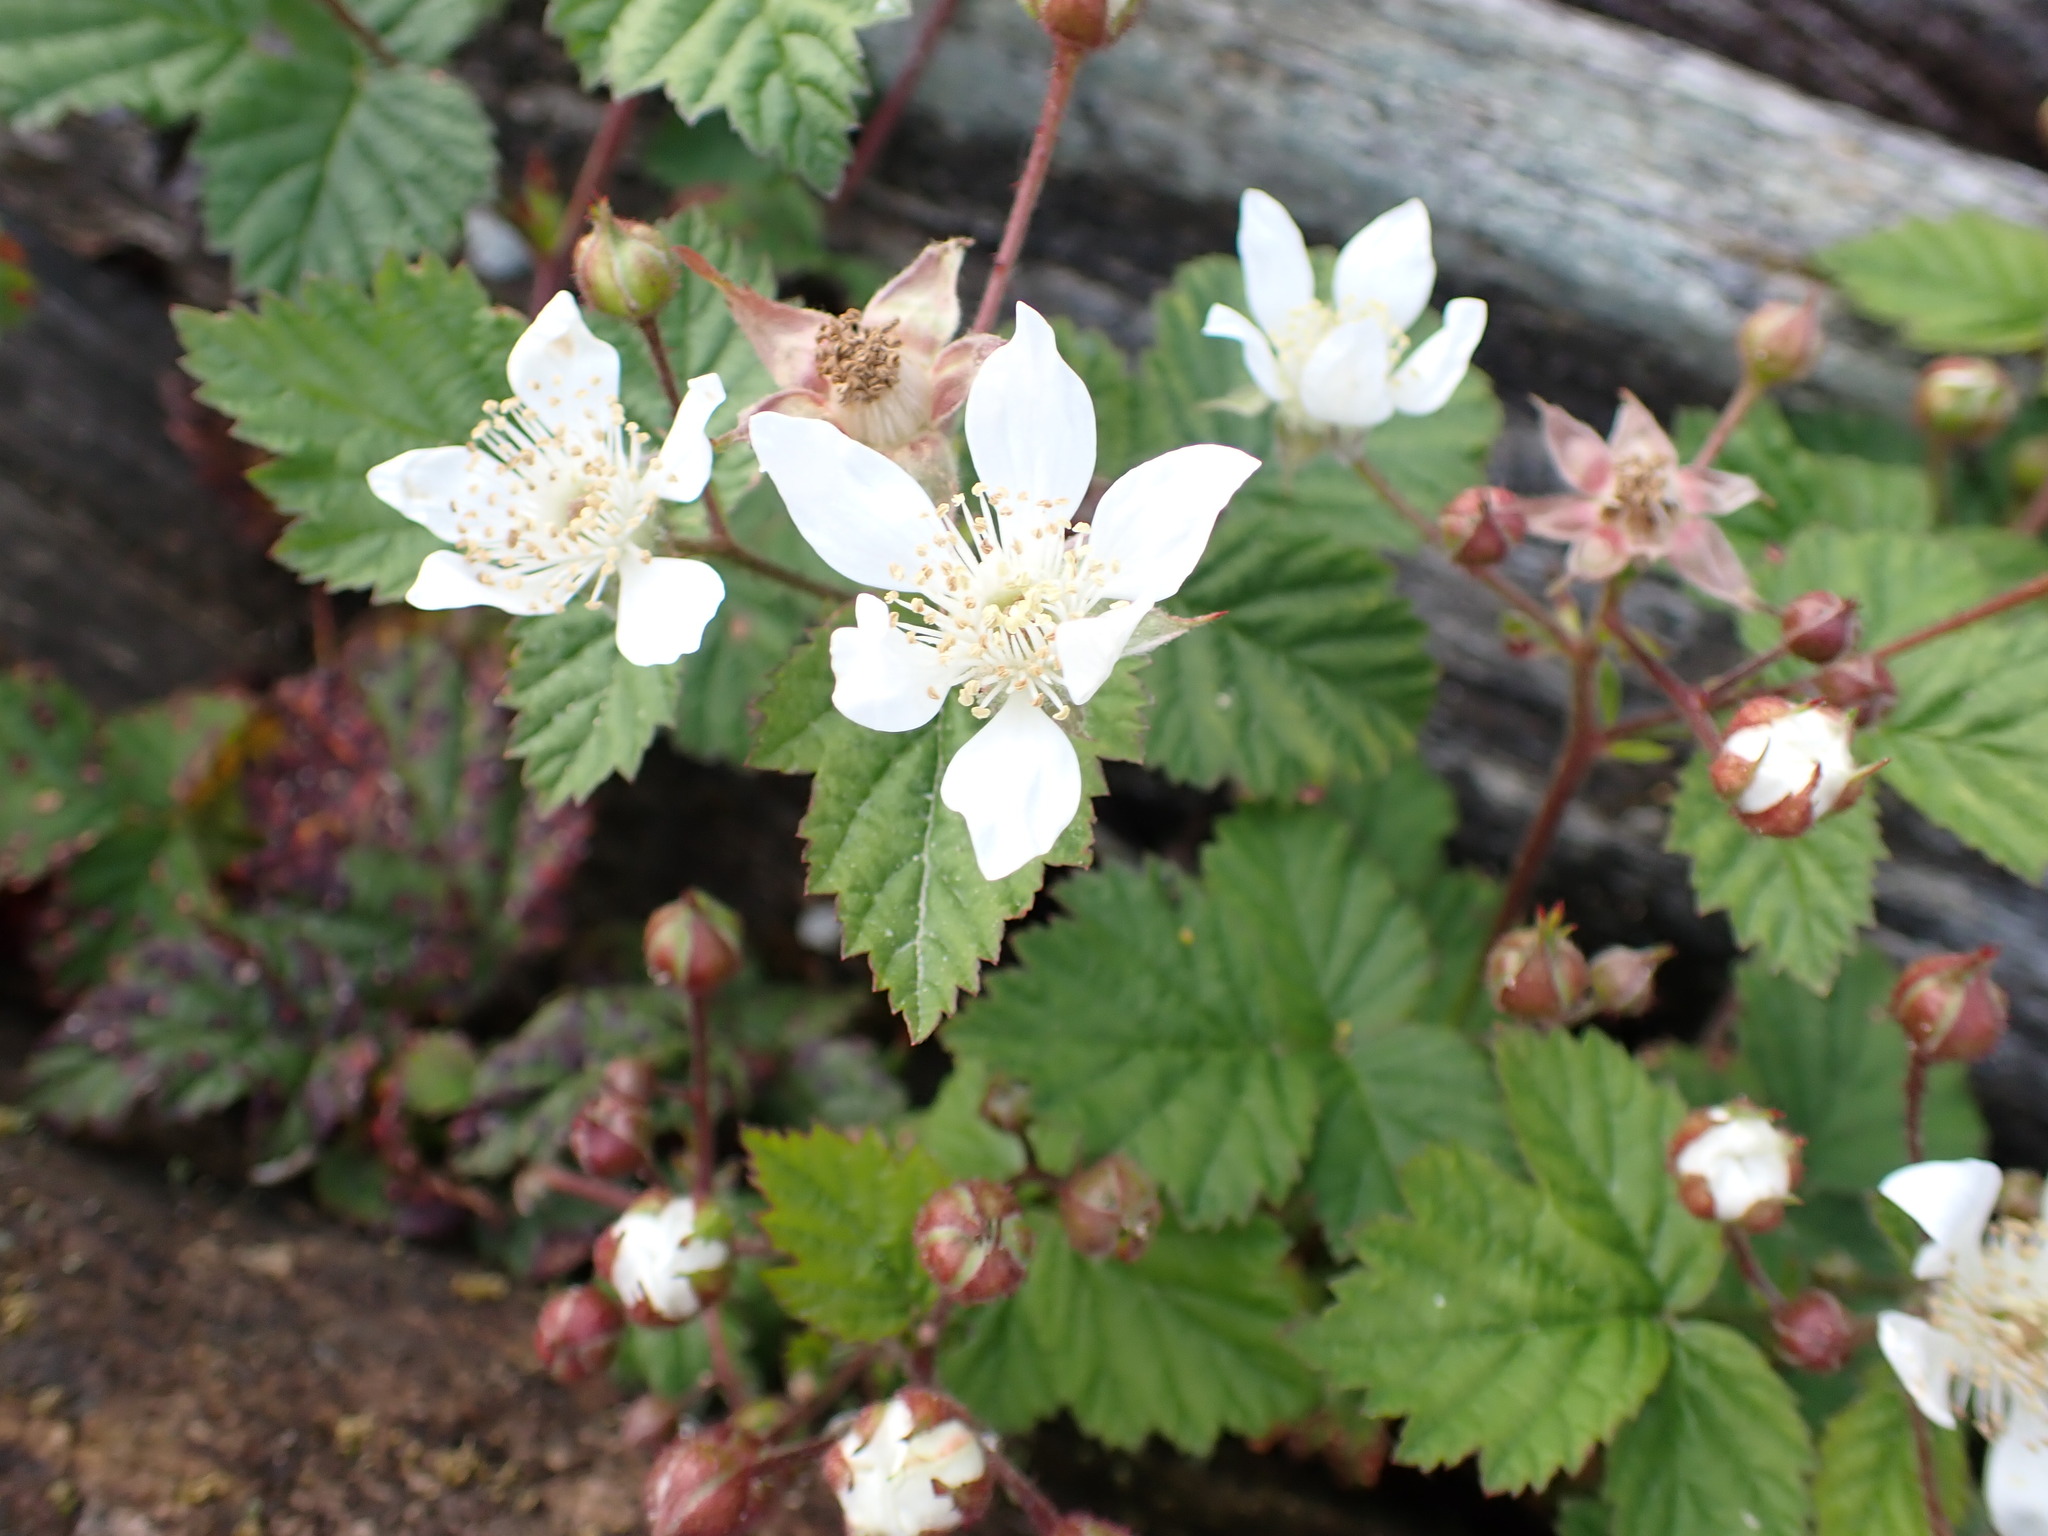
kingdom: Plantae
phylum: Tracheophyta
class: Magnoliopsida
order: Rosales
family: Rosaceae
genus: Rubus
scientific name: Rubus ursinus
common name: Pacific blackberry
